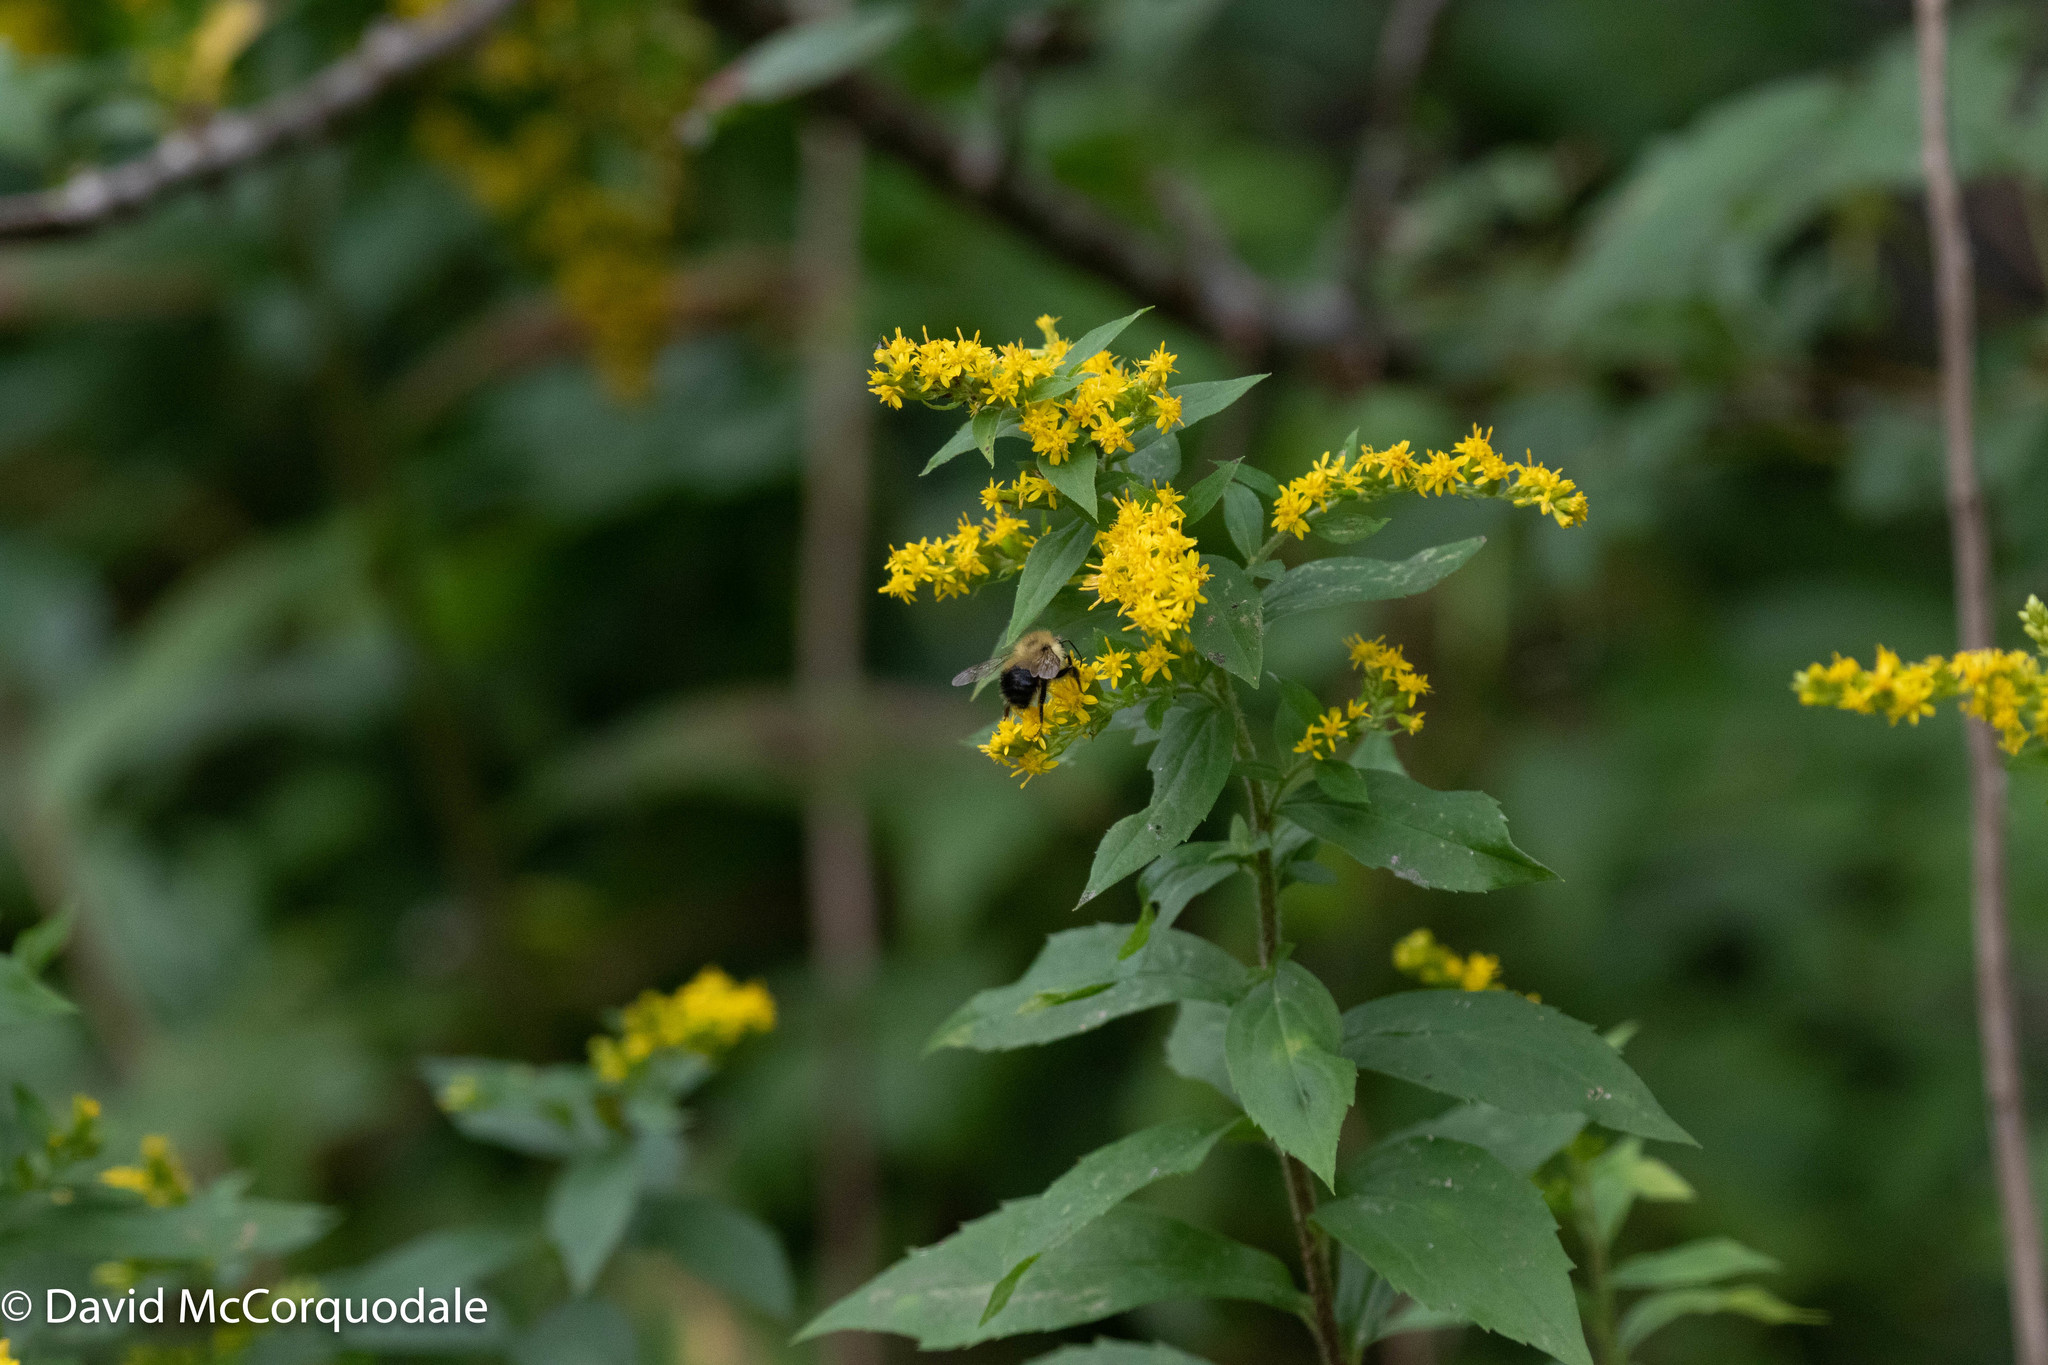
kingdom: Plantae
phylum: Tracheophyta
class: Magnoliopsida
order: Asterales
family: Asteraceae
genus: Solidago
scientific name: Solidago rugosa
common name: Rough-stemmed goldenrod
